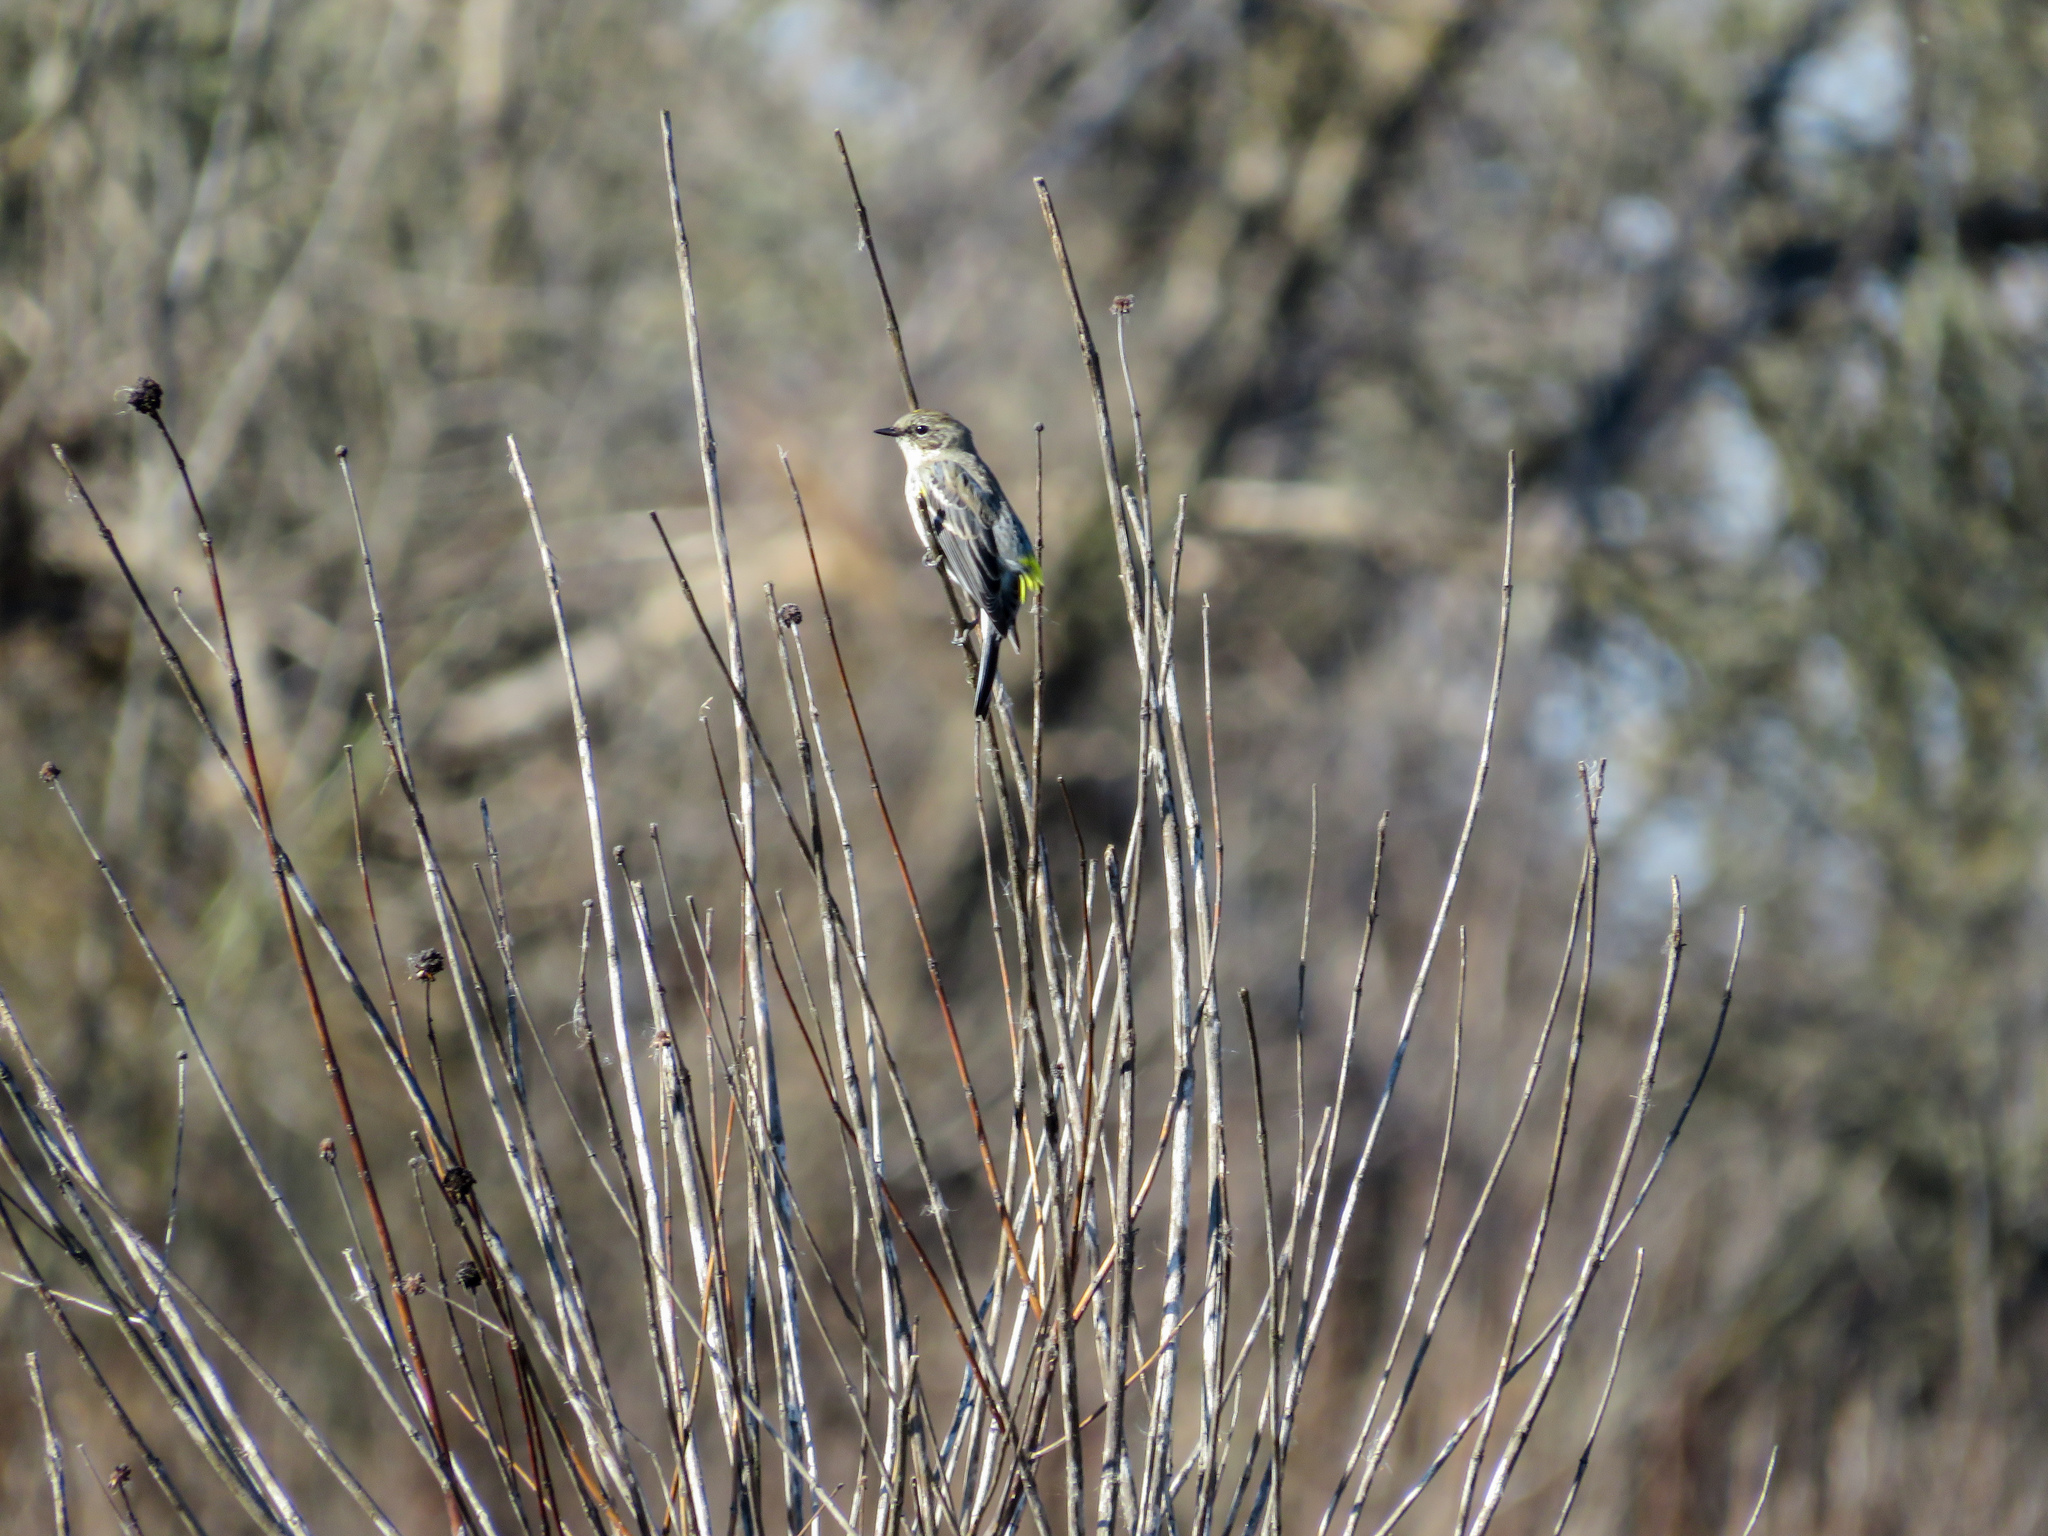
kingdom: Animalia
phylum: Chordata
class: Aves
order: Passeriformes
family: Parulidae
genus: Setophaga
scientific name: Setophaga coronata
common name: Myrtle warbler
